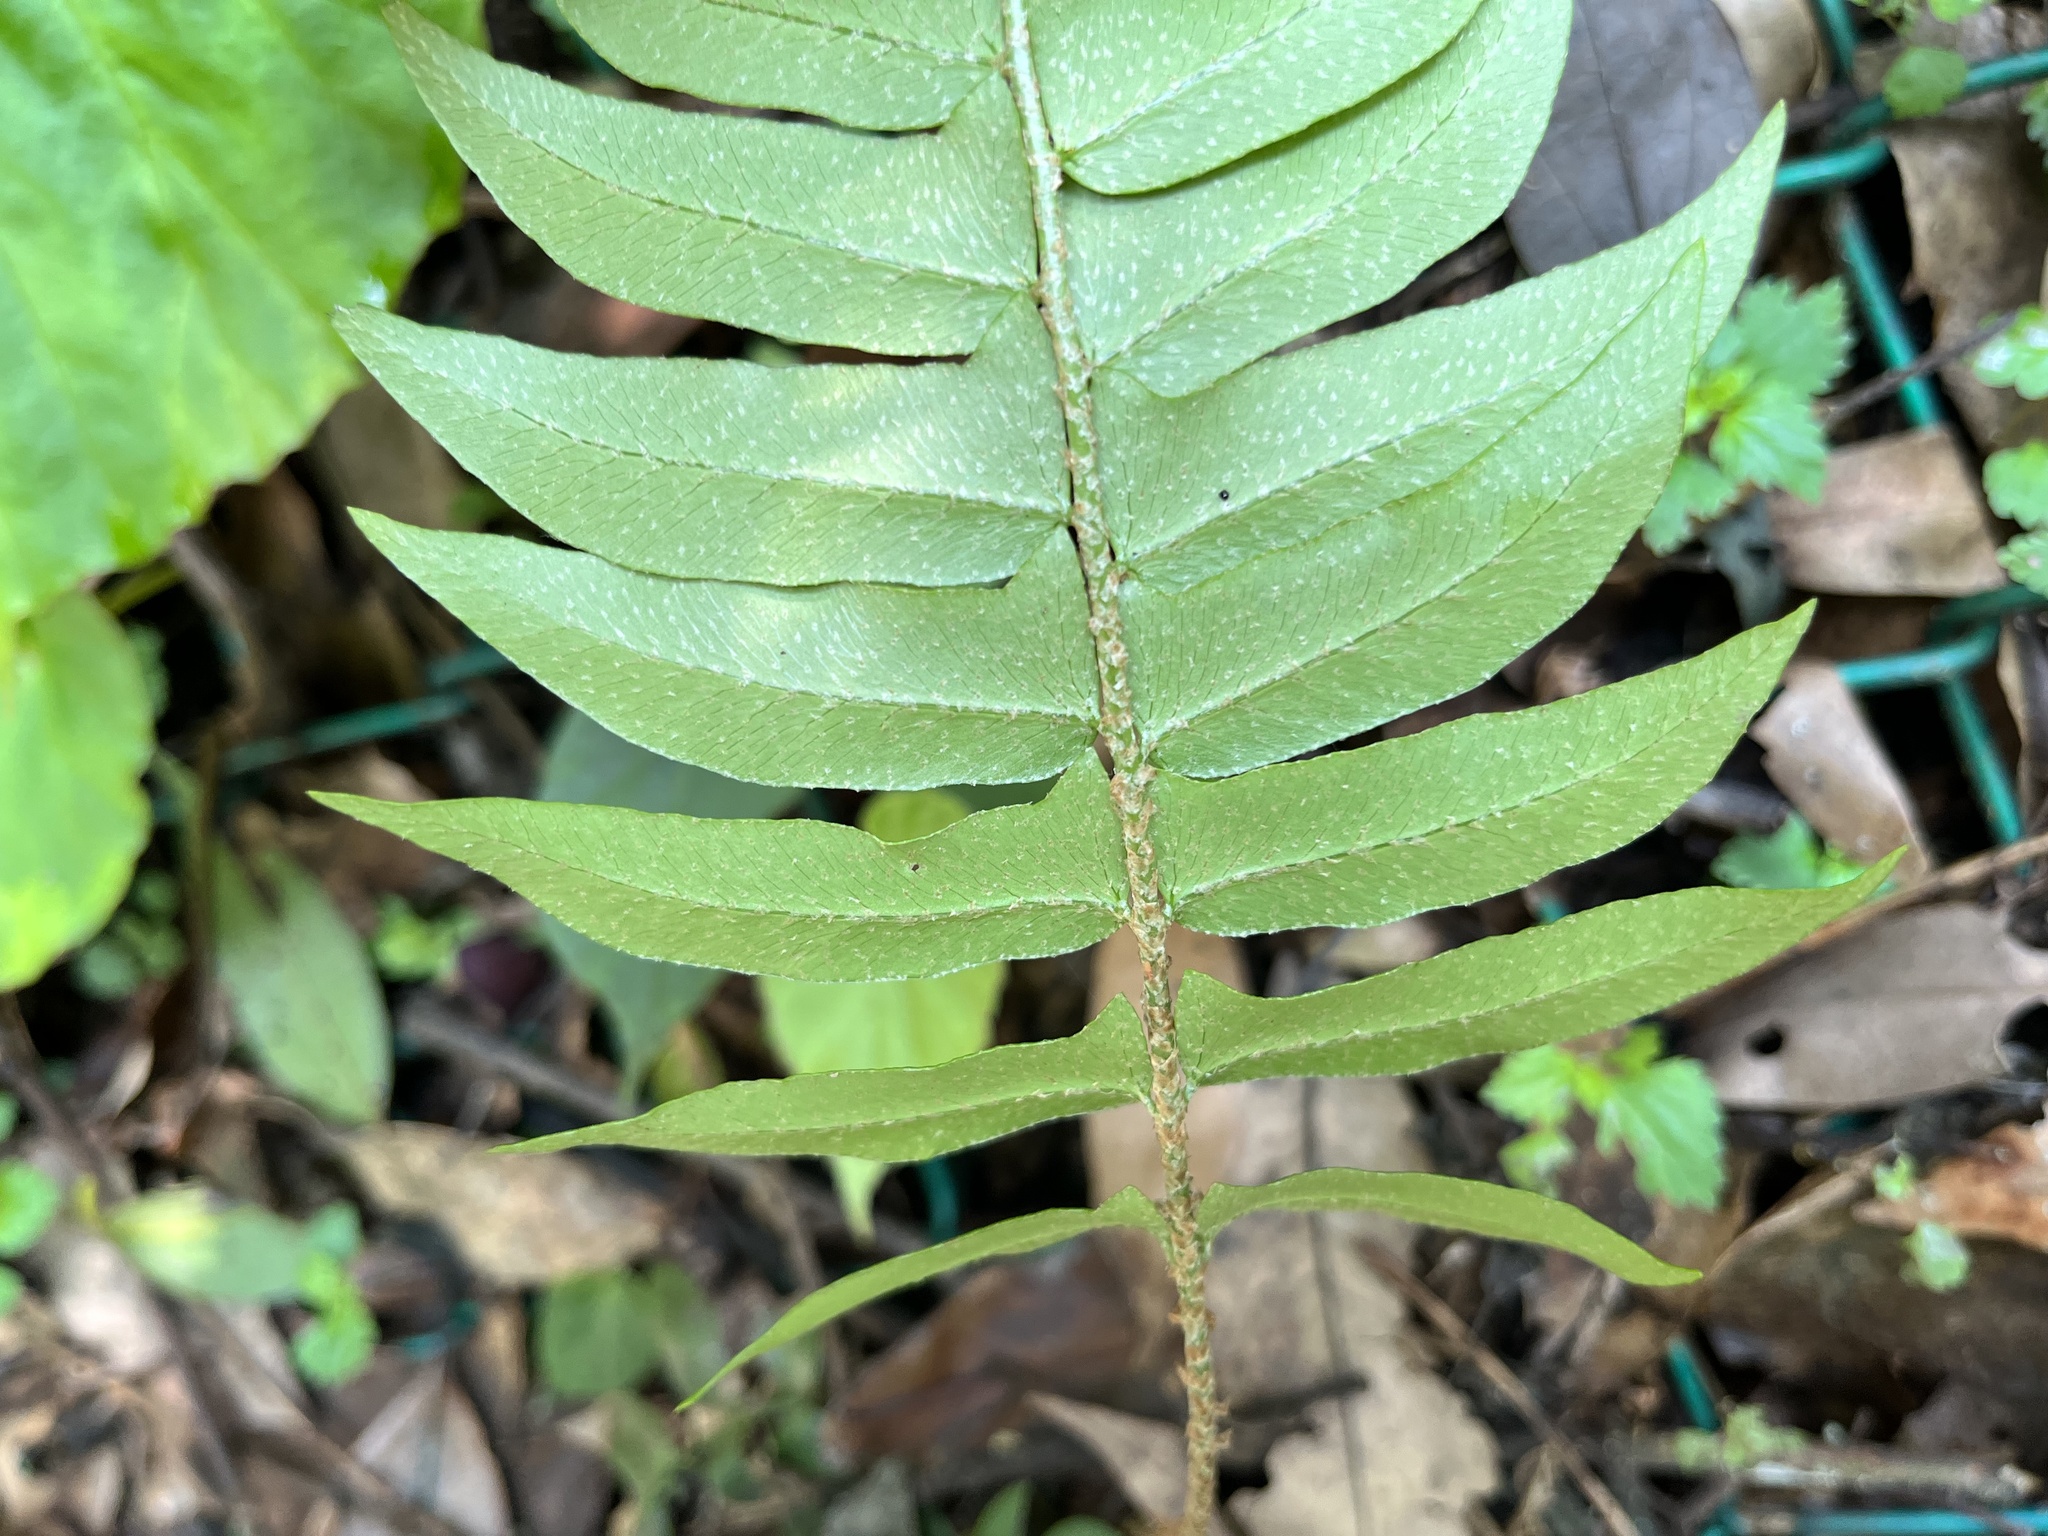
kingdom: Plantae
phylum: Tracheophyta
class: Polypodiopsida
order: Polypodiales
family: Dryopteridaceae
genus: Polystichum
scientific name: Polystichum lepidocaulon
